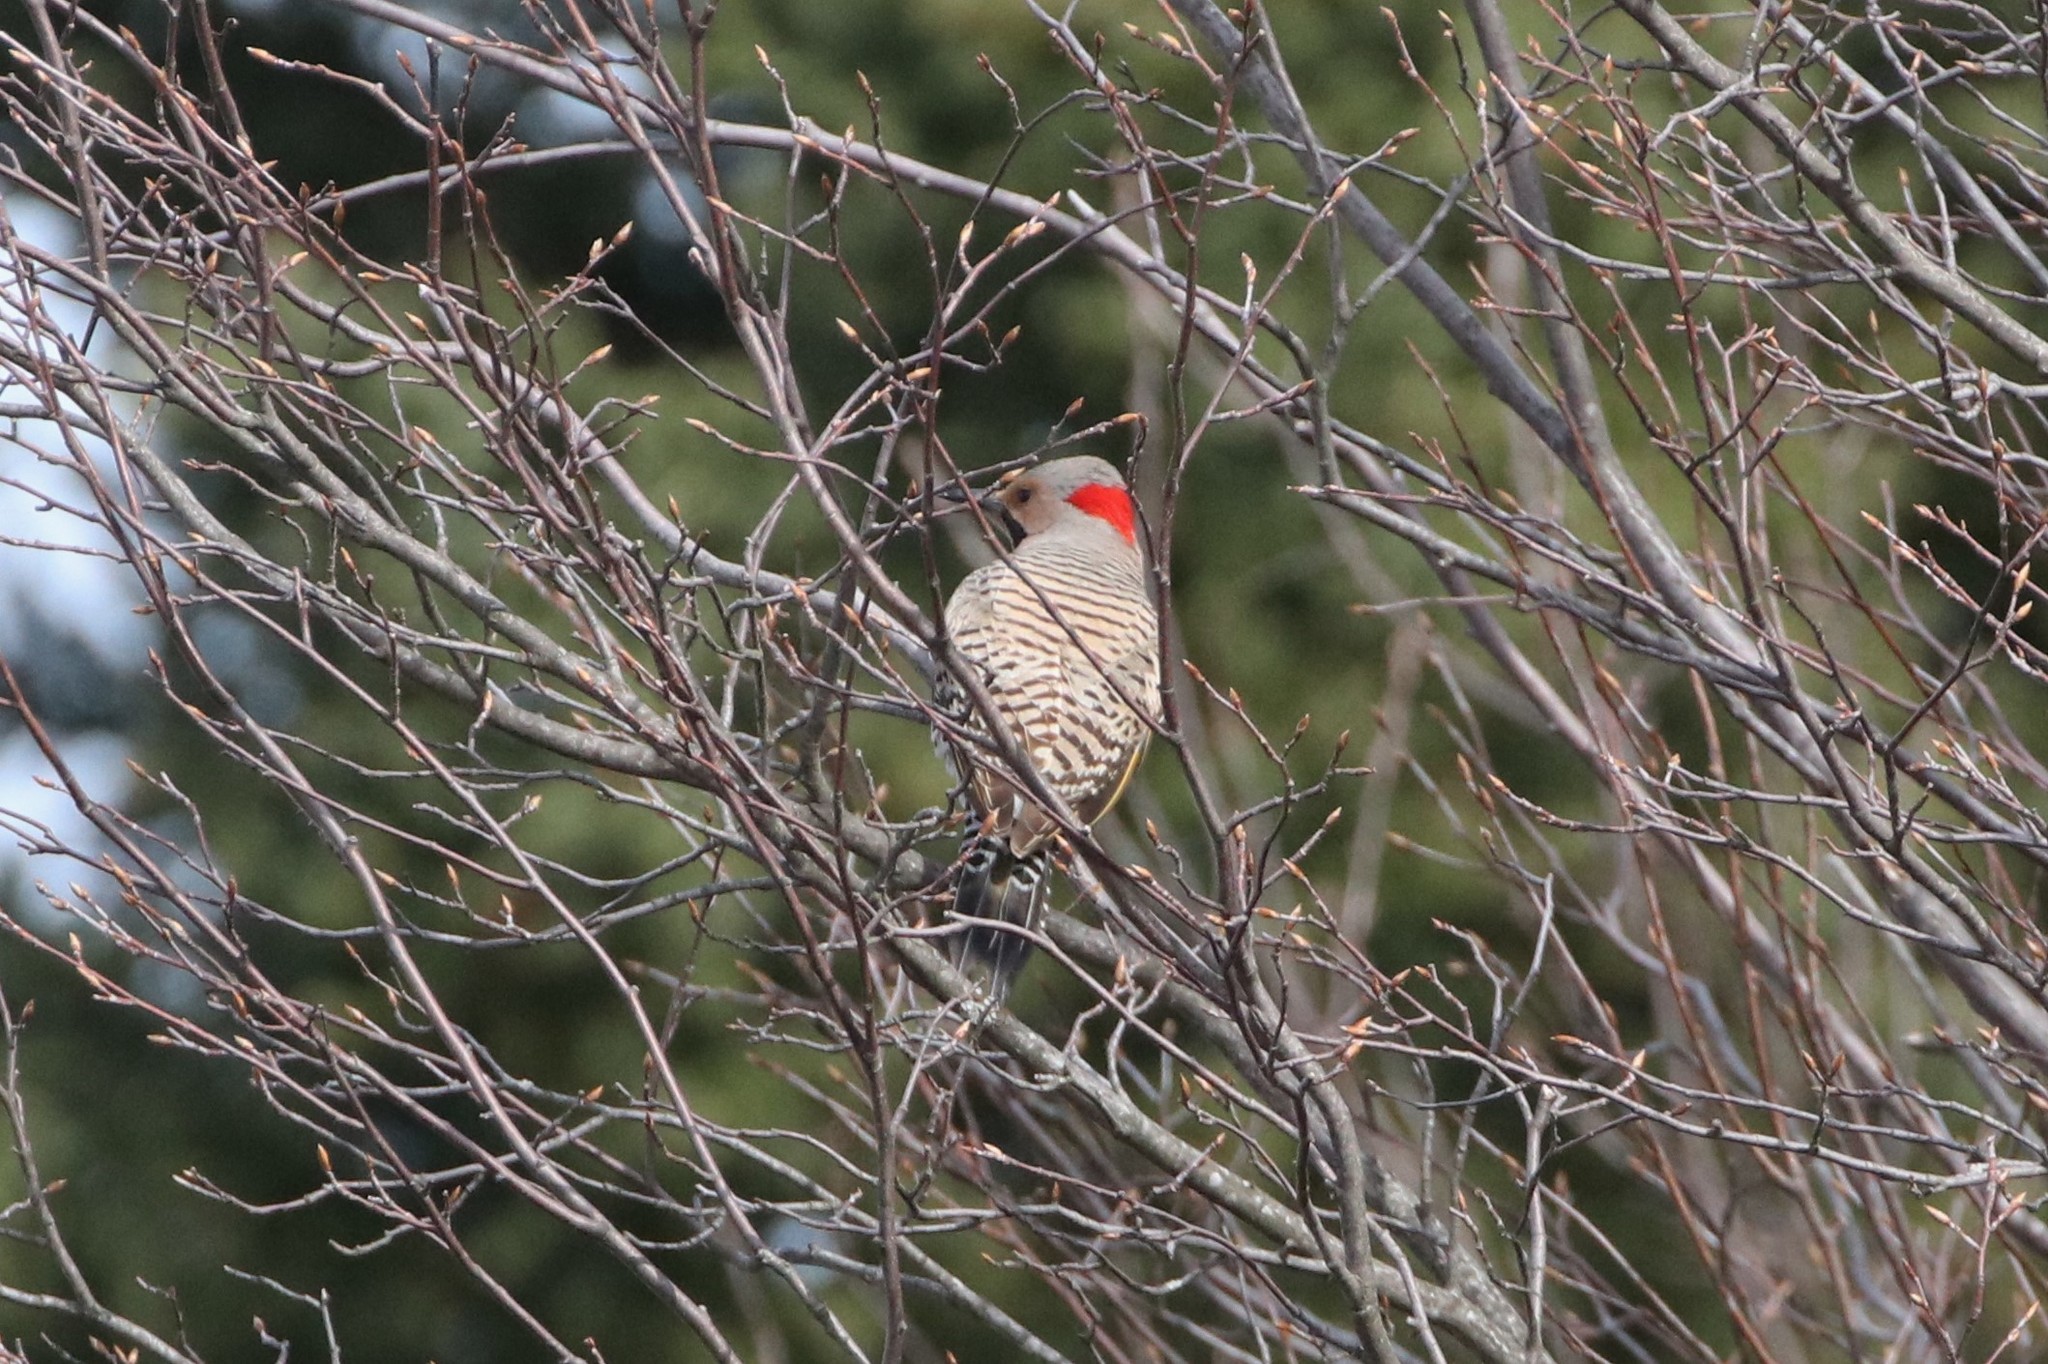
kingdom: Animalia
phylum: Chordata
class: Aves
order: Piciformes
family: Picidae
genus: Colaptes
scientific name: Colaptes auratus
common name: Northern flicker
